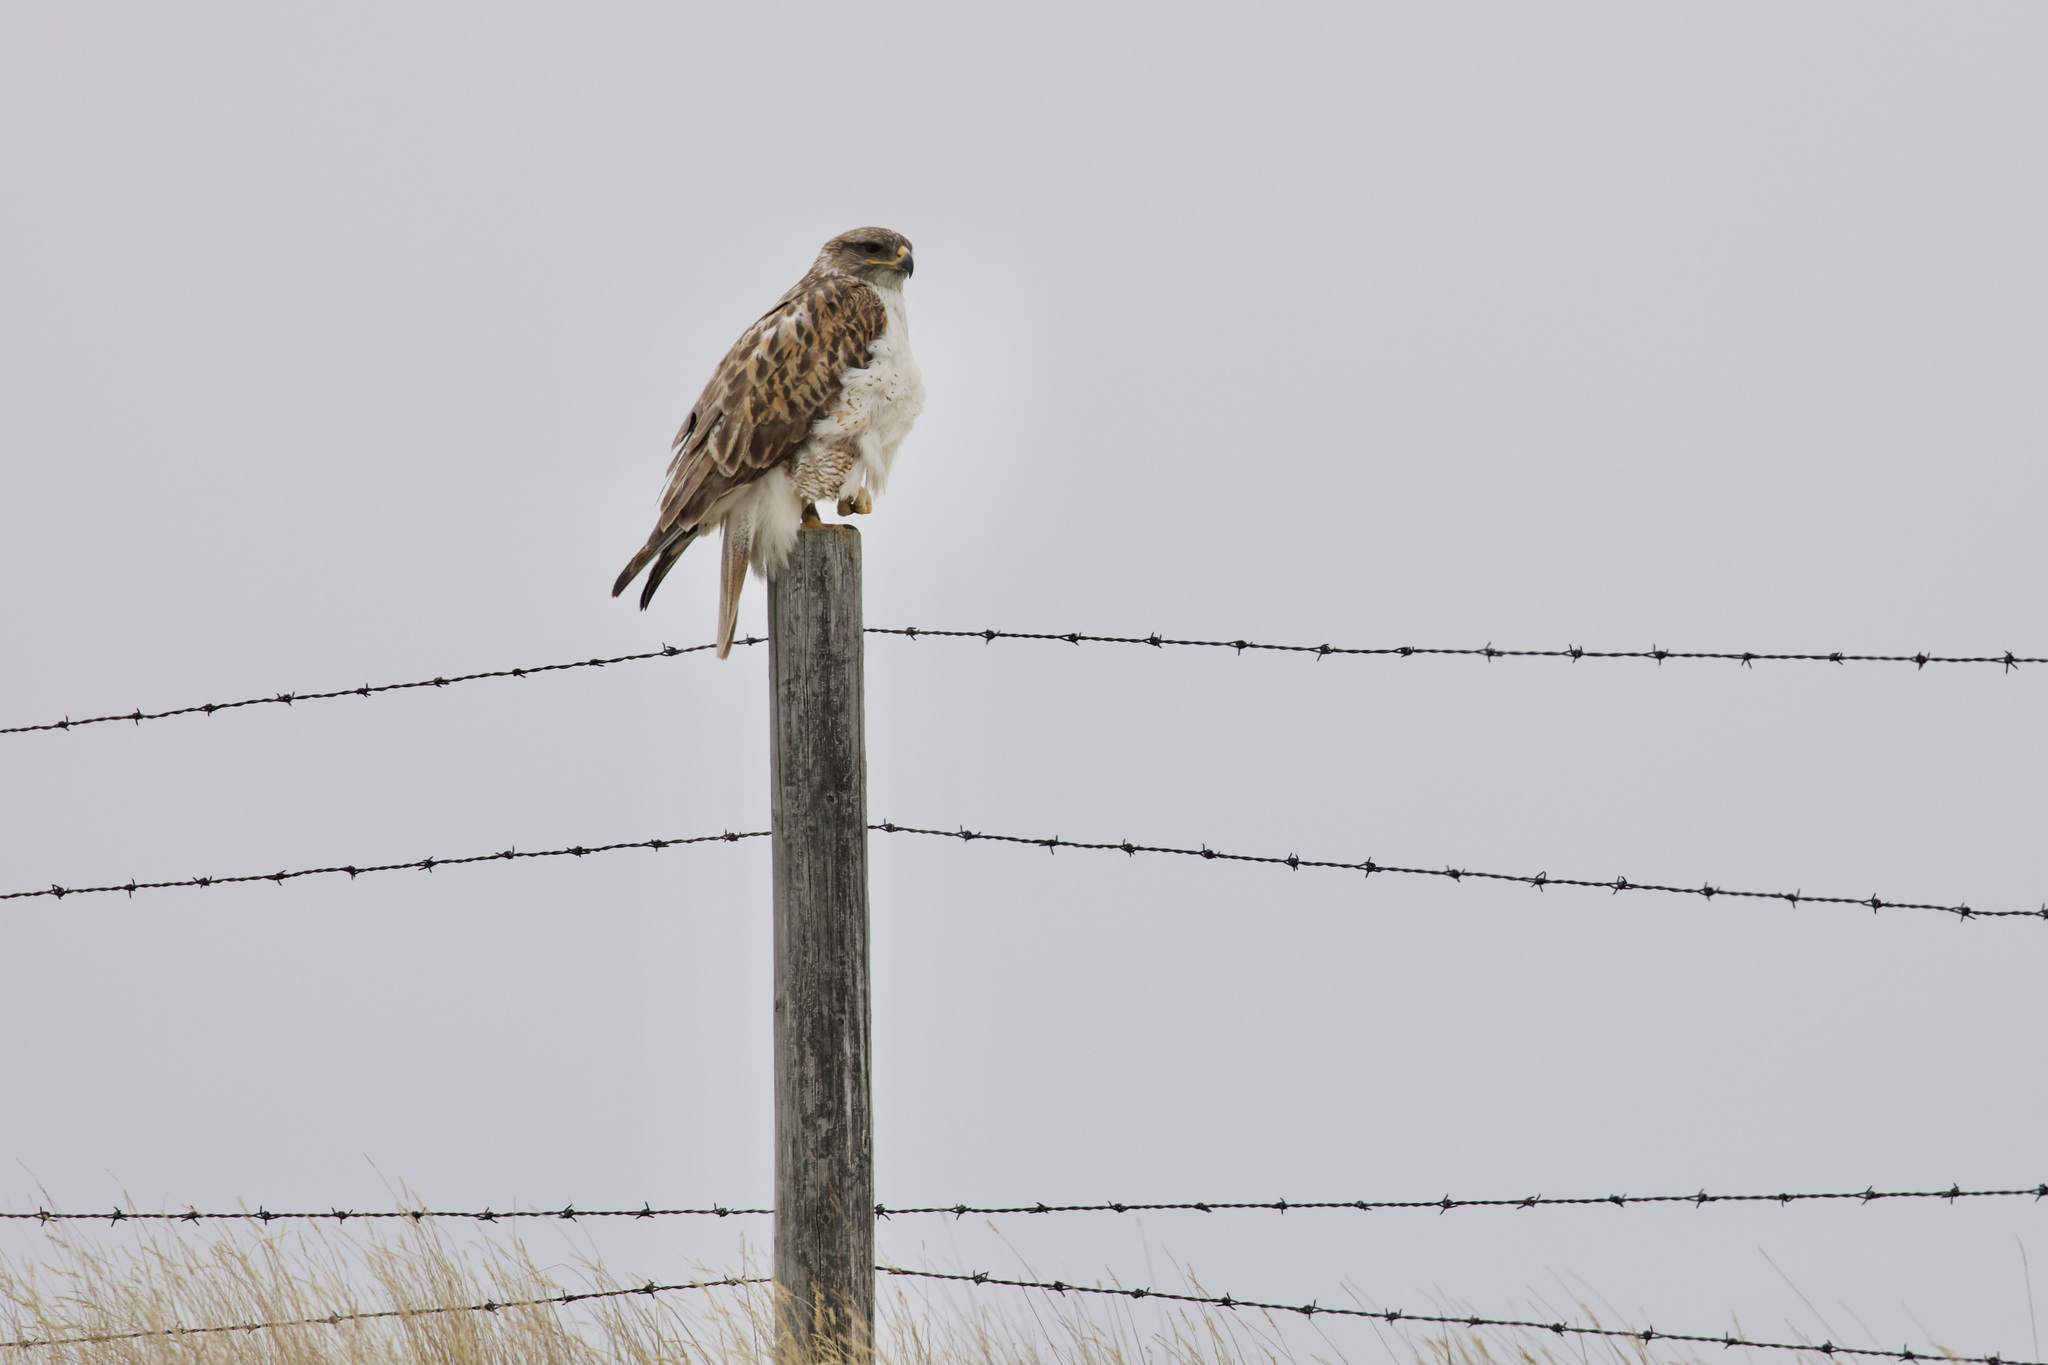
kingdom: Animalia
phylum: Chordata
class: Aves
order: Accipitriformes
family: Accipitridae
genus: Buteo
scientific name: Buteo regalis
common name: Ferruginous hawk
